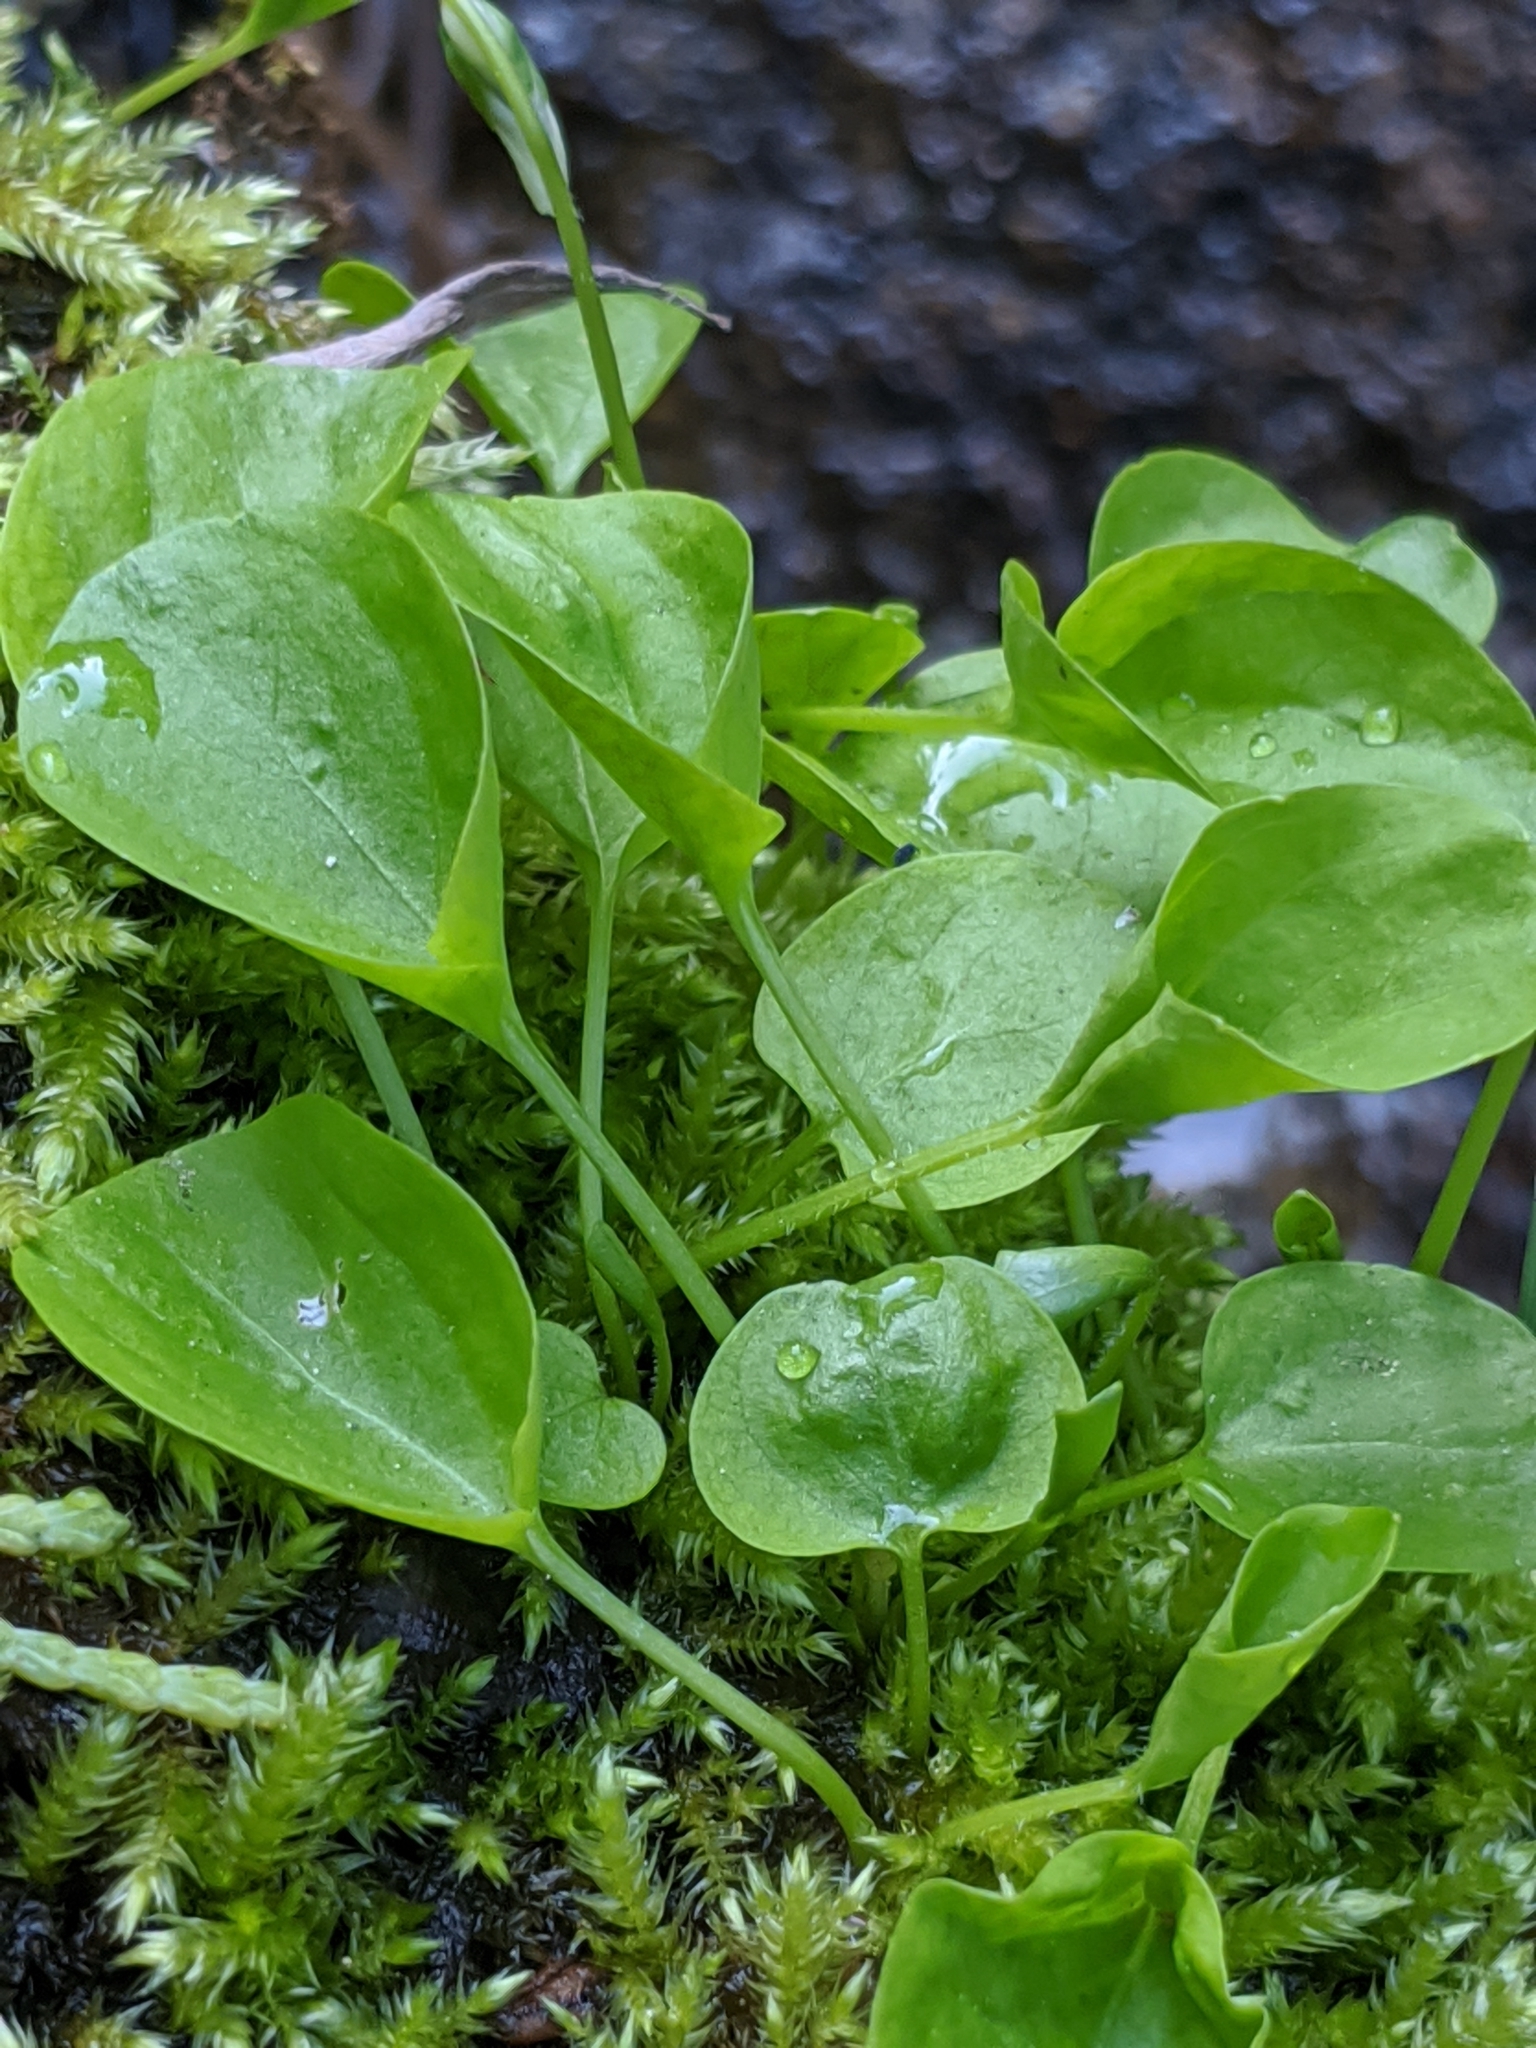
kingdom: Plantae
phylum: Tracheophyta
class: Magnoliopsida
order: Malpighiales
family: Violaceae
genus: Viola
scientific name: Viola macloskeyi
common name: Macloskey's violet
